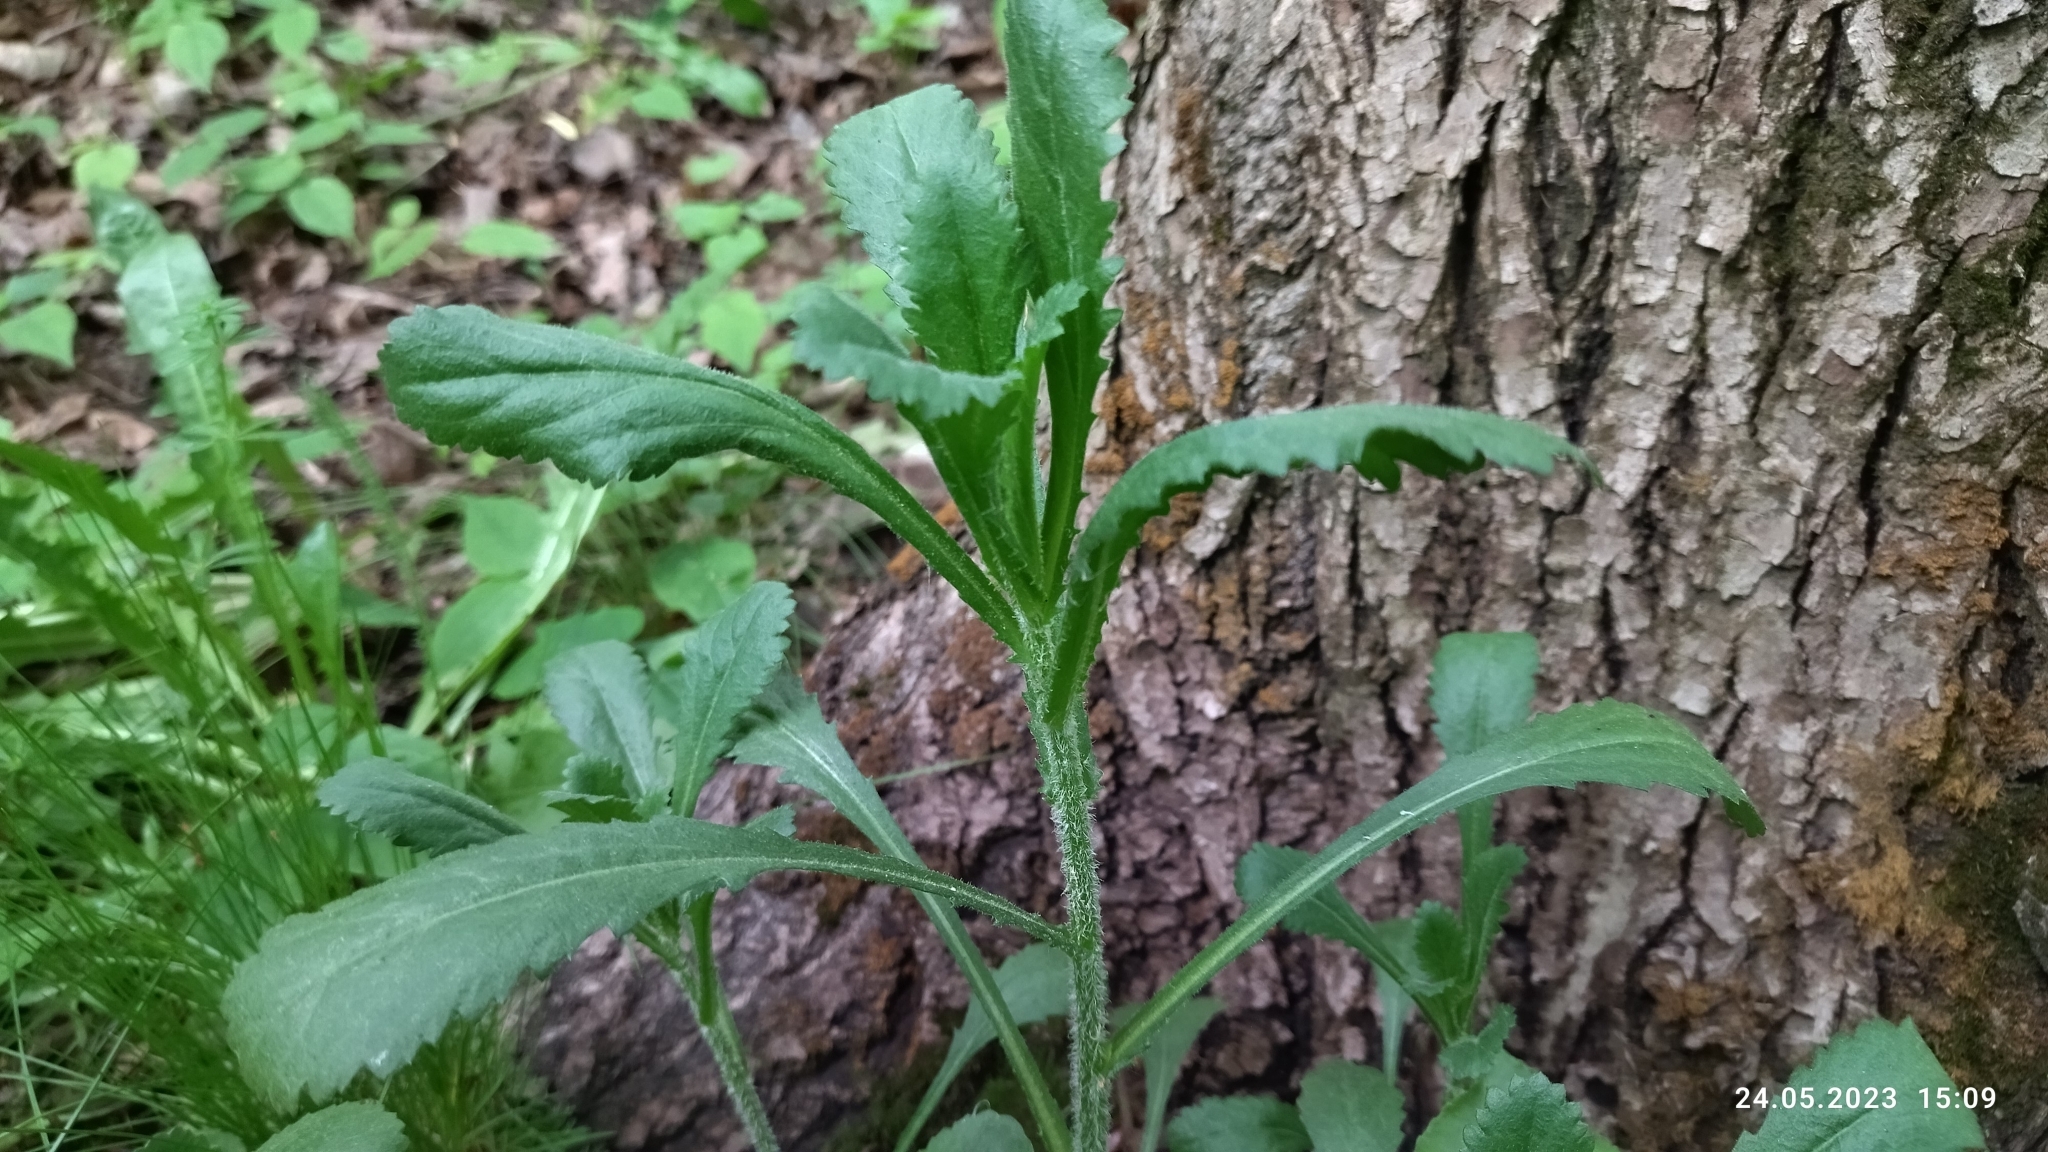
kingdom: Plantae
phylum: Tracheophyta
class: Magnoliopsida
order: Asterales
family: Asteraceae
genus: Leucanthemum
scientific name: Leucanthemum vulgare
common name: Oxeye daisy
